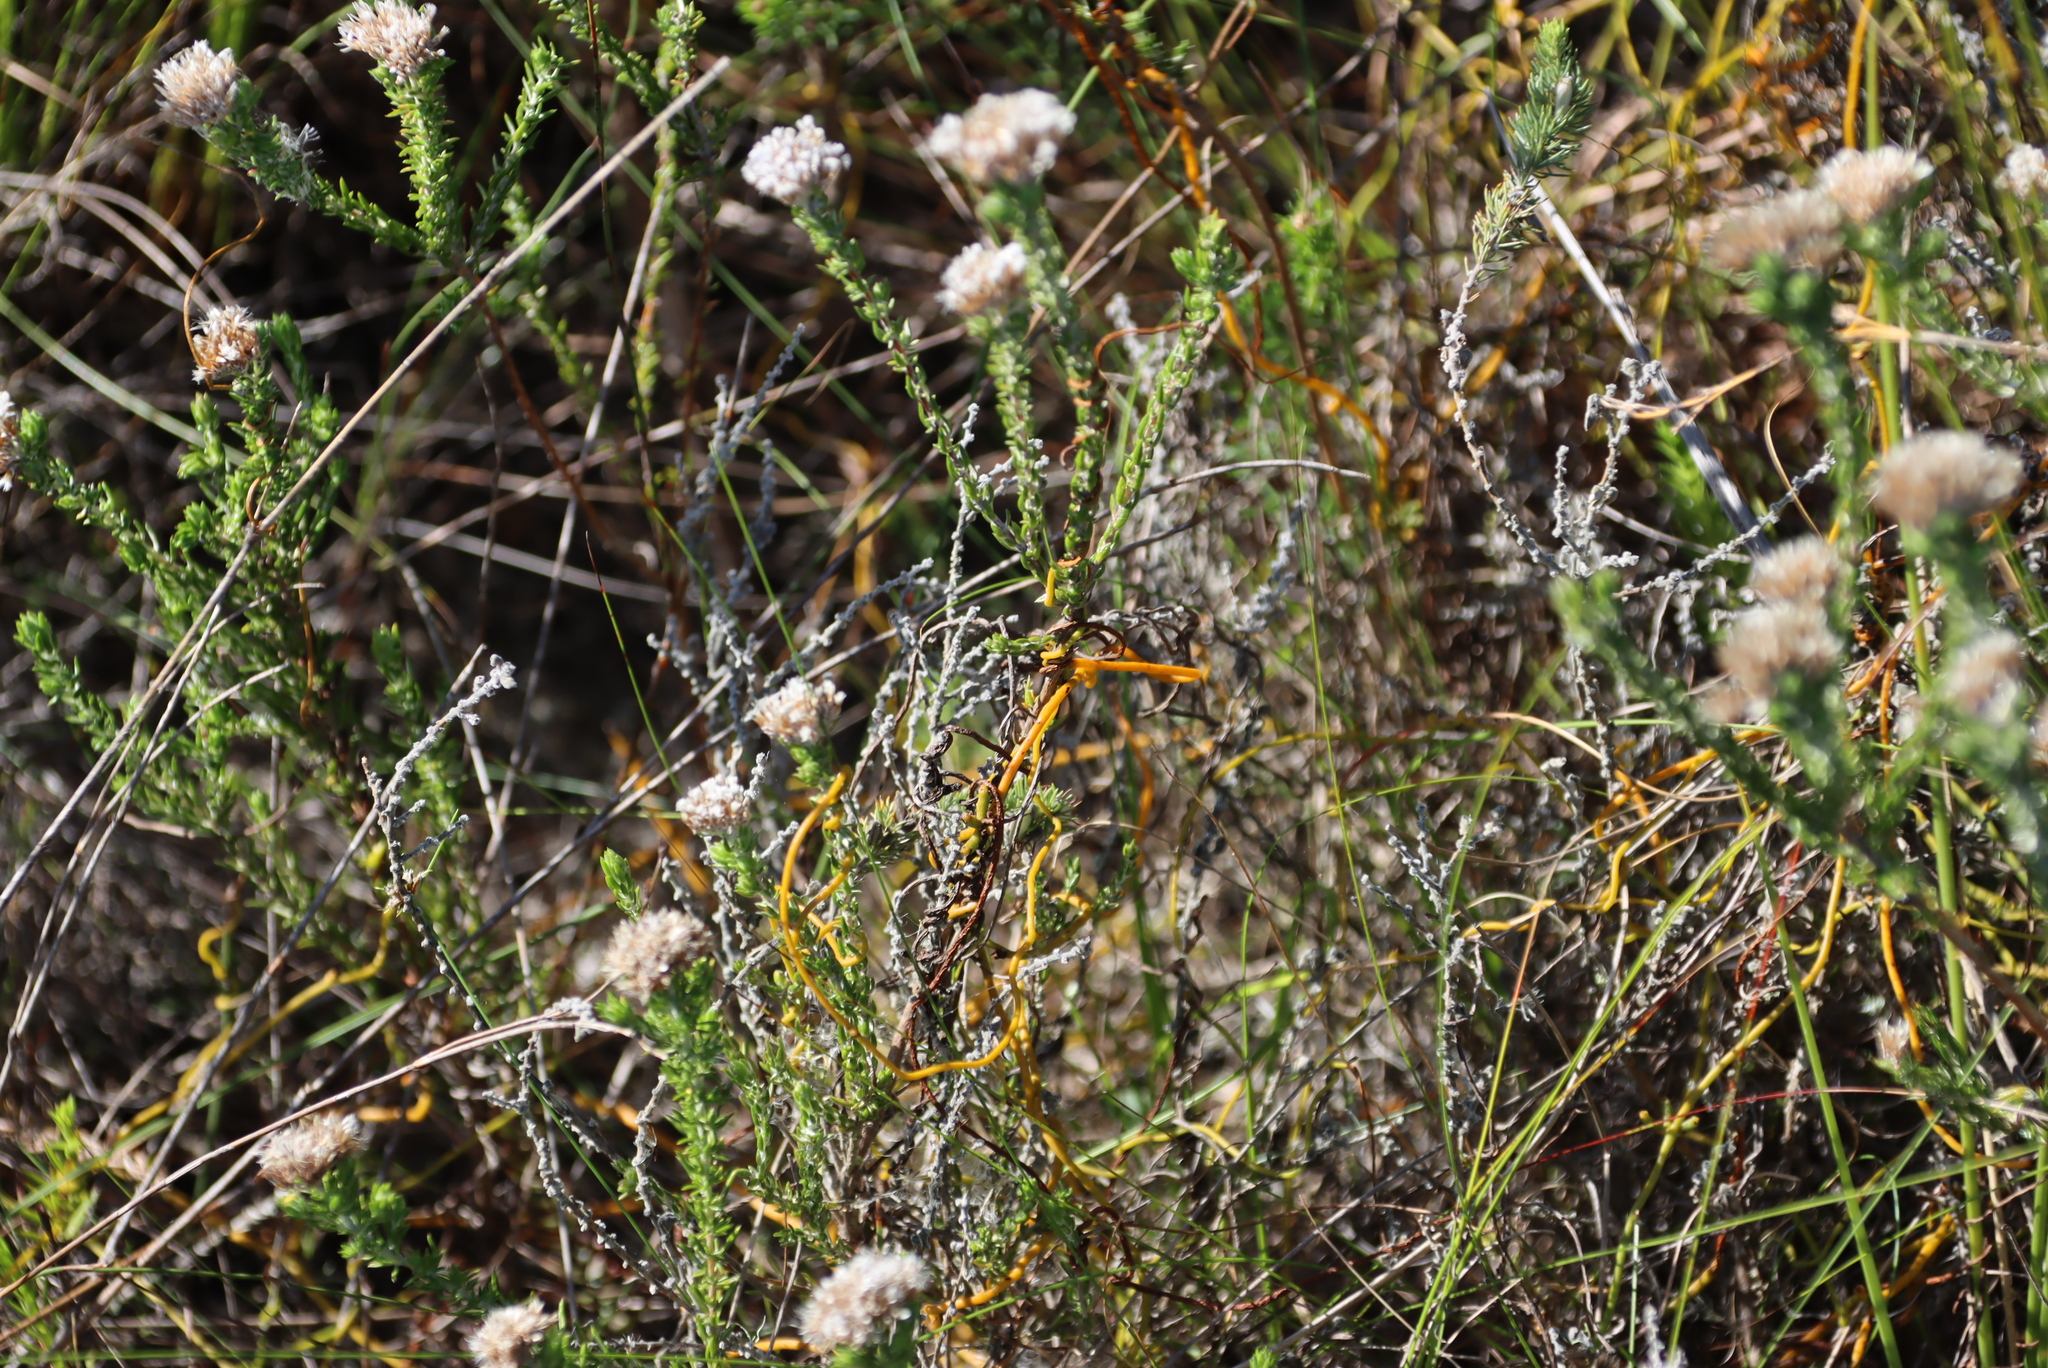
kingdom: Plantae
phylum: Tracheophyta
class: Magnoliopsida
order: Laurales
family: Lauraceae
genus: Cassytha
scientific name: Cassytha ciliolata
